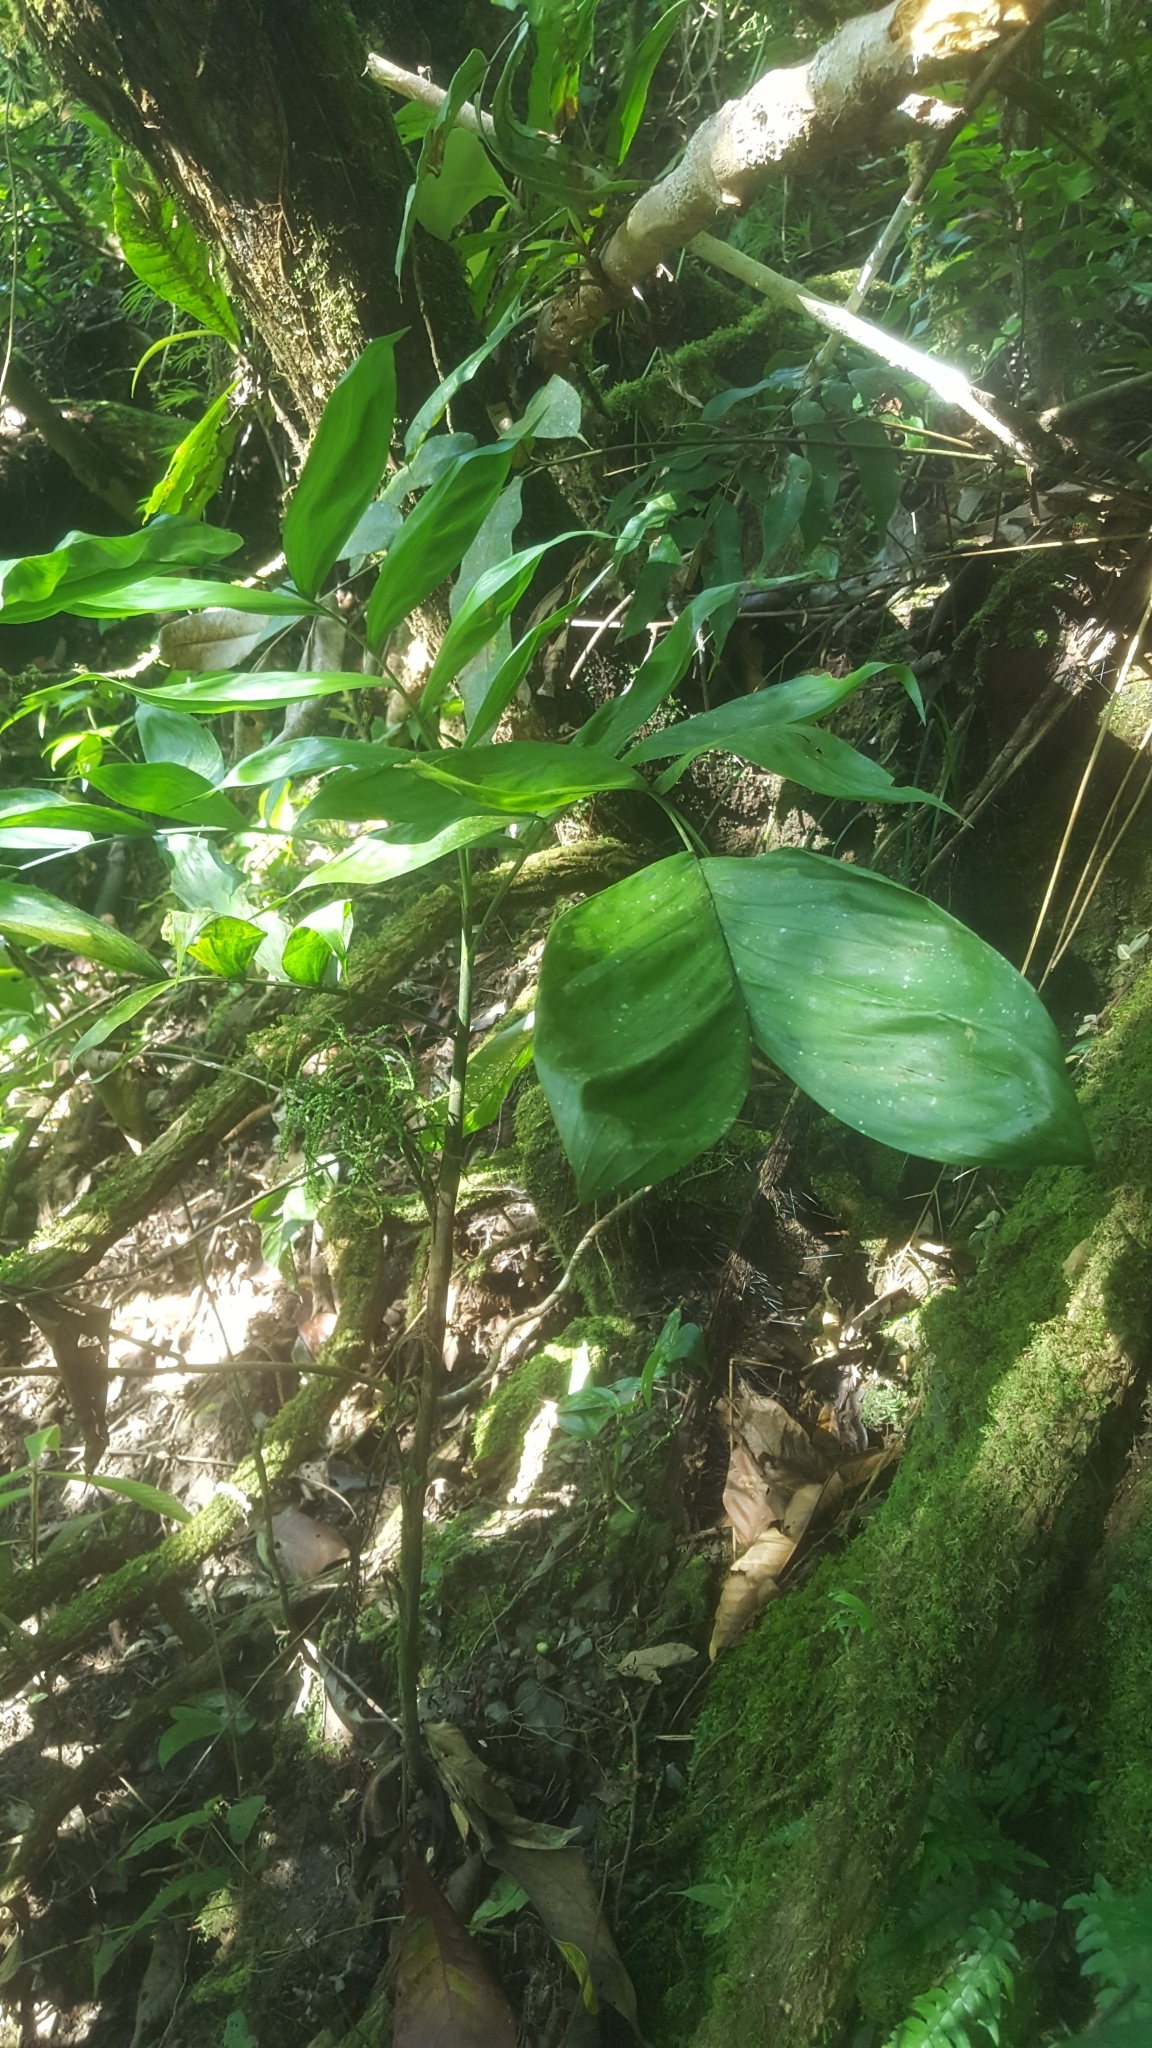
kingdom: Plantae
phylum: Tracheophyta
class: Liliopsida
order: Arecales
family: Arecaceae
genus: Chamaedorea
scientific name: Chamaedorea pinnatifrons
